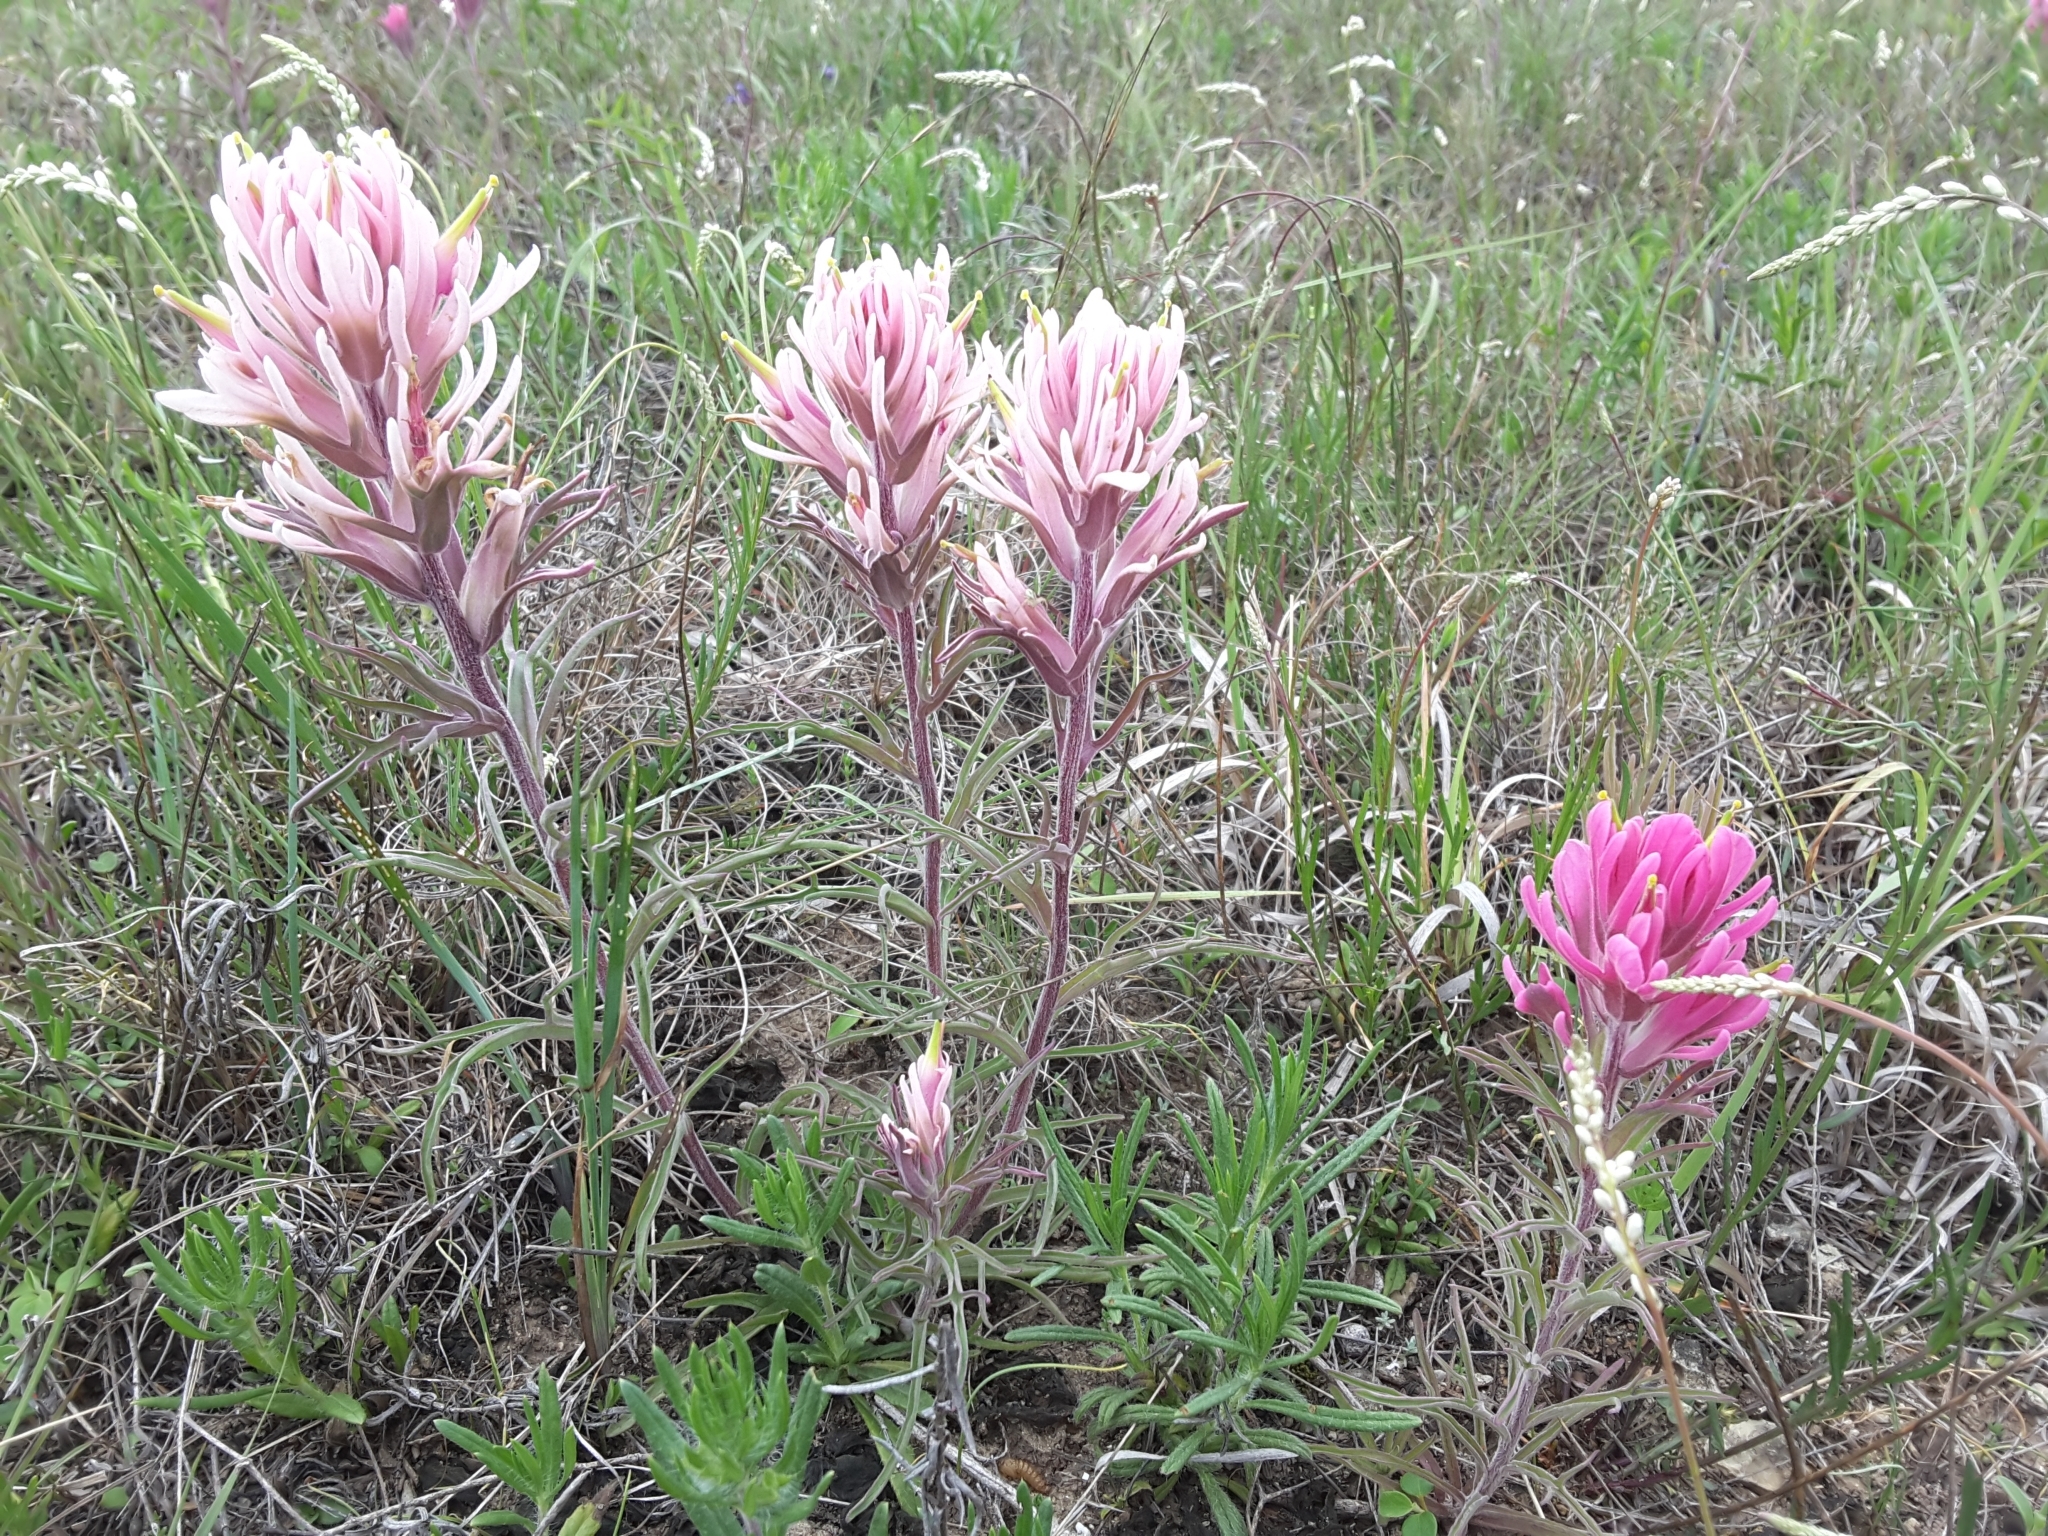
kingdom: Plantae
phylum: Tracheophyta
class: Magnoliopsida
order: Lamiales
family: Orobanchaceae
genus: Castilleja
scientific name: Castilleja purpurea
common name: Plains paintbrush
